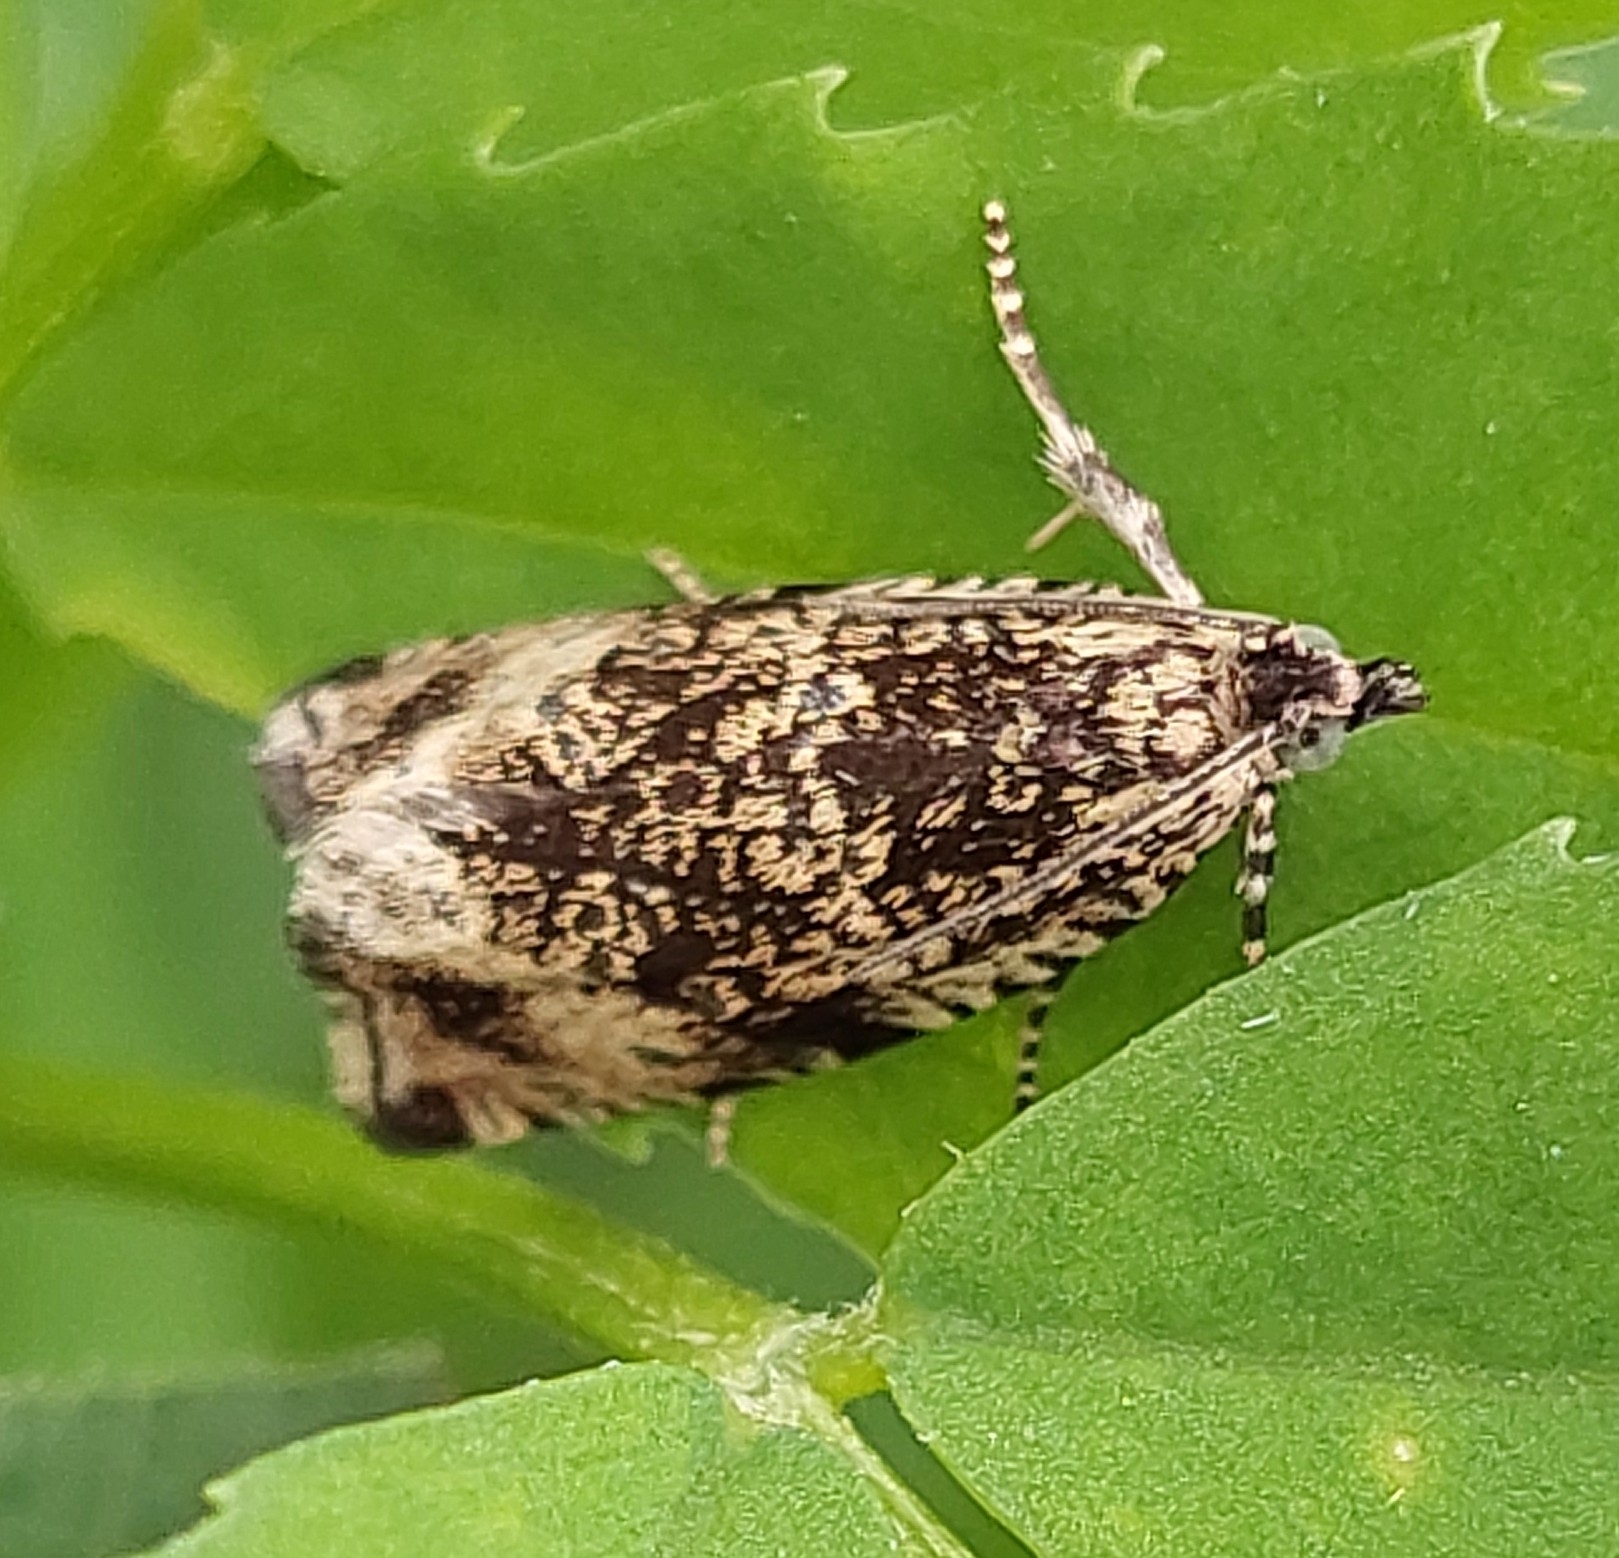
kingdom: Animalia
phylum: Arthropoda
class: Insecta
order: Lepidoptera
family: Tortricidae
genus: Syricoris
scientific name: Syricoris lacunana
